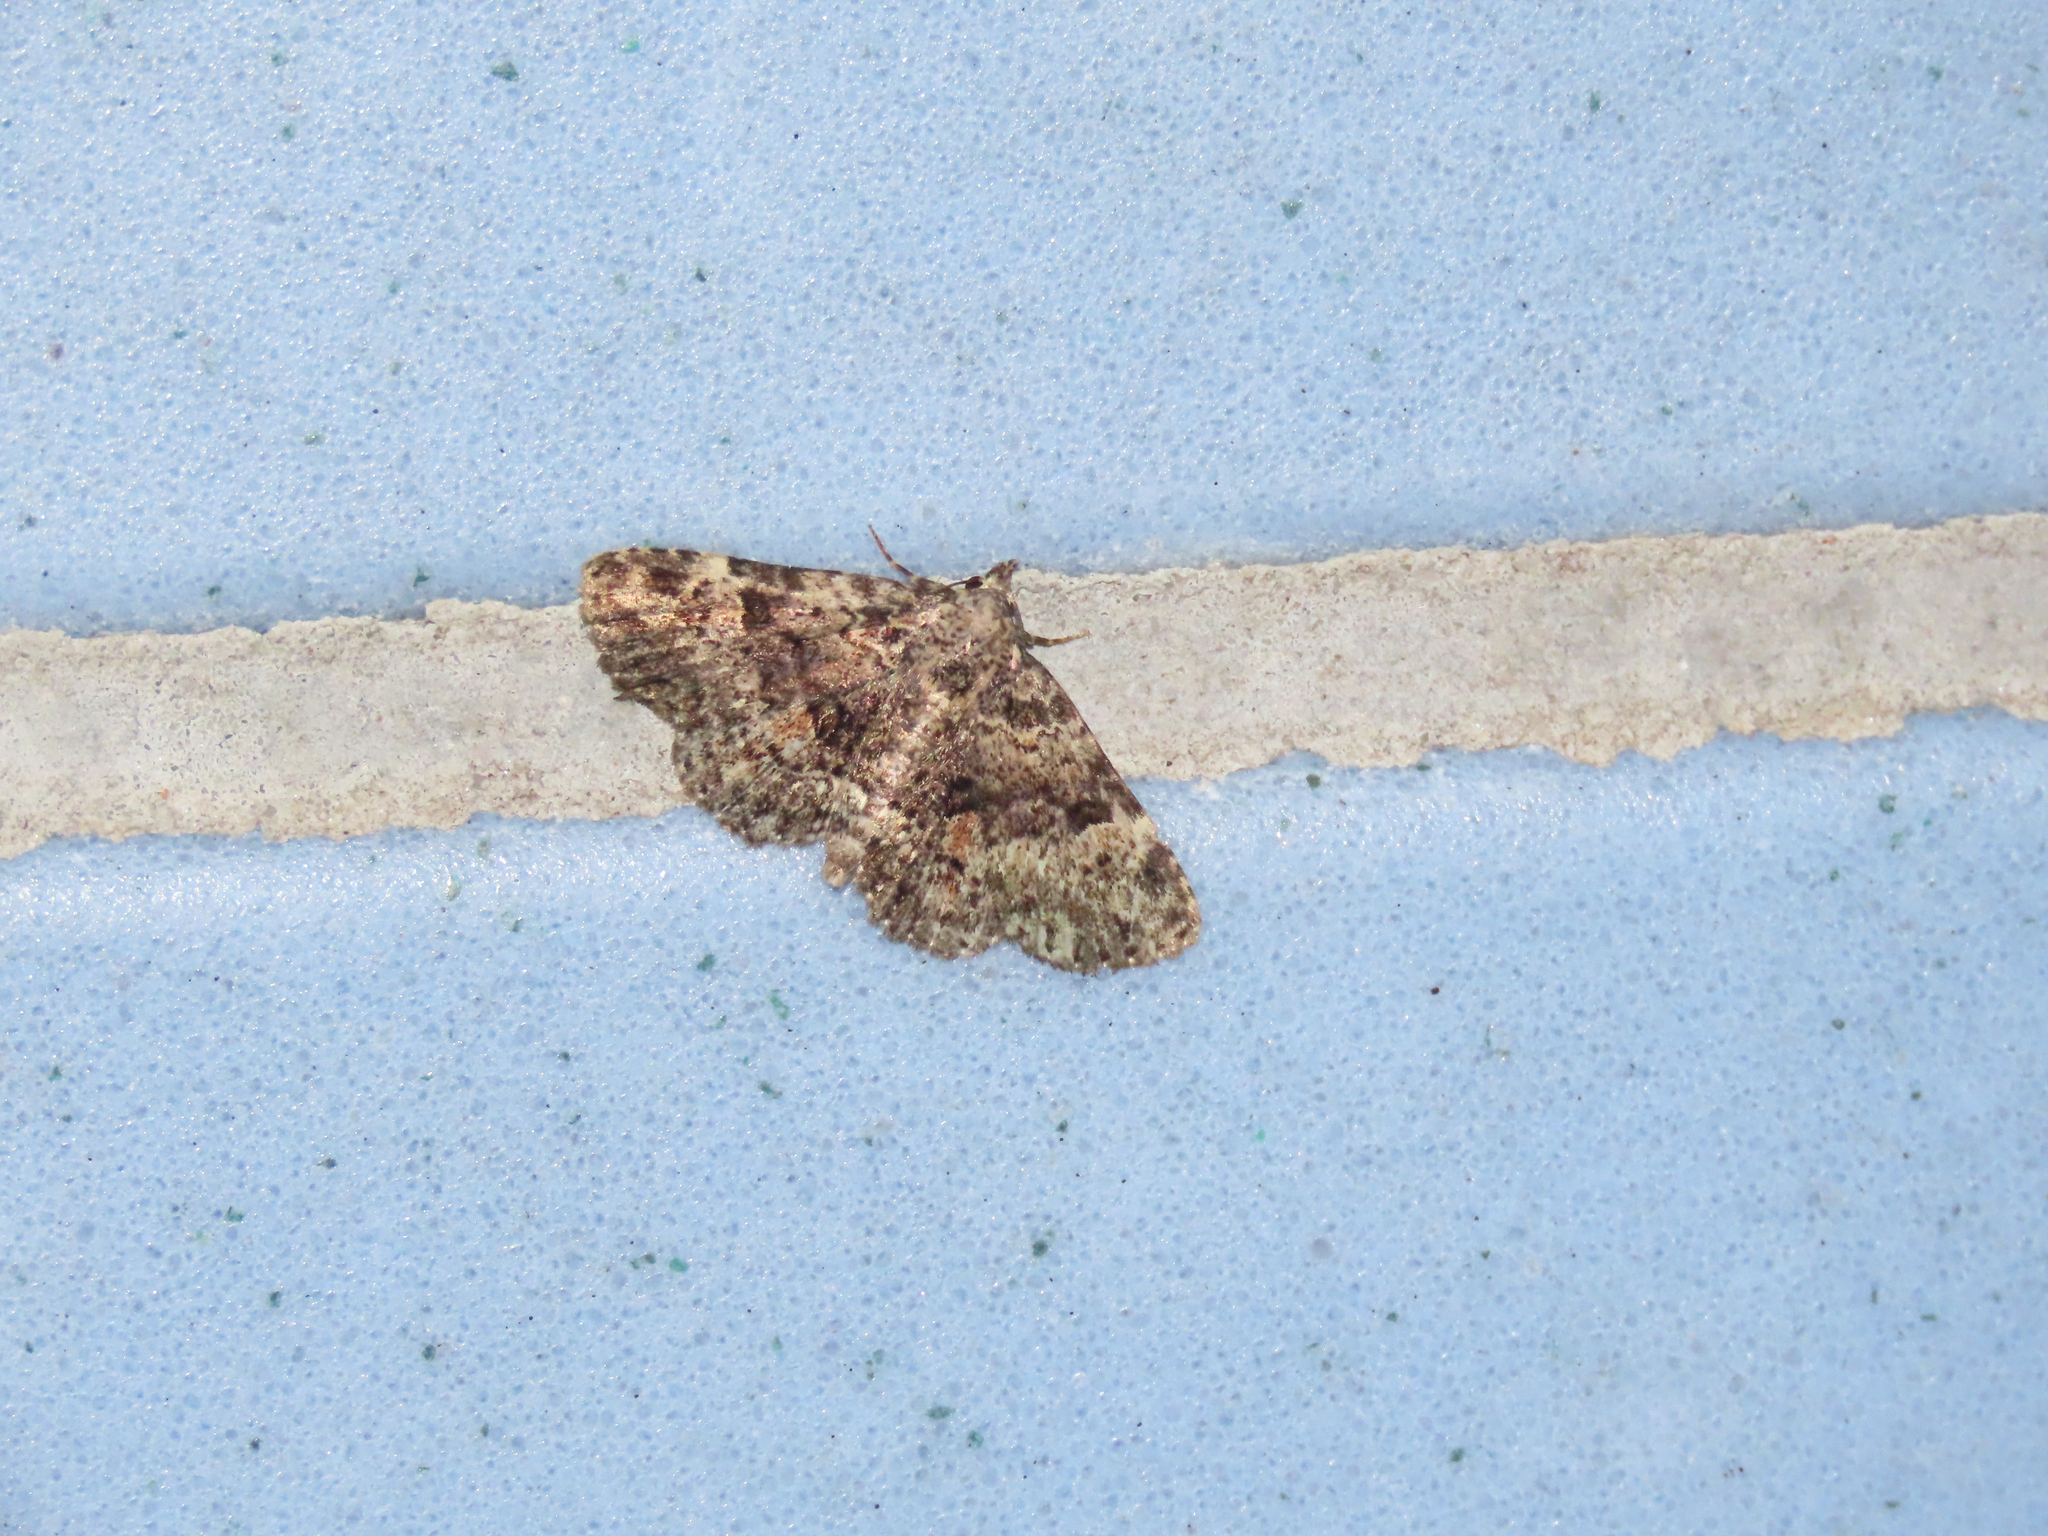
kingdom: Animalia
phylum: Arthropoda
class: Insecta
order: Lepidoptera
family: Erebidae
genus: Metalectra
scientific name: Metalectra discalis
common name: Common fungus moth
